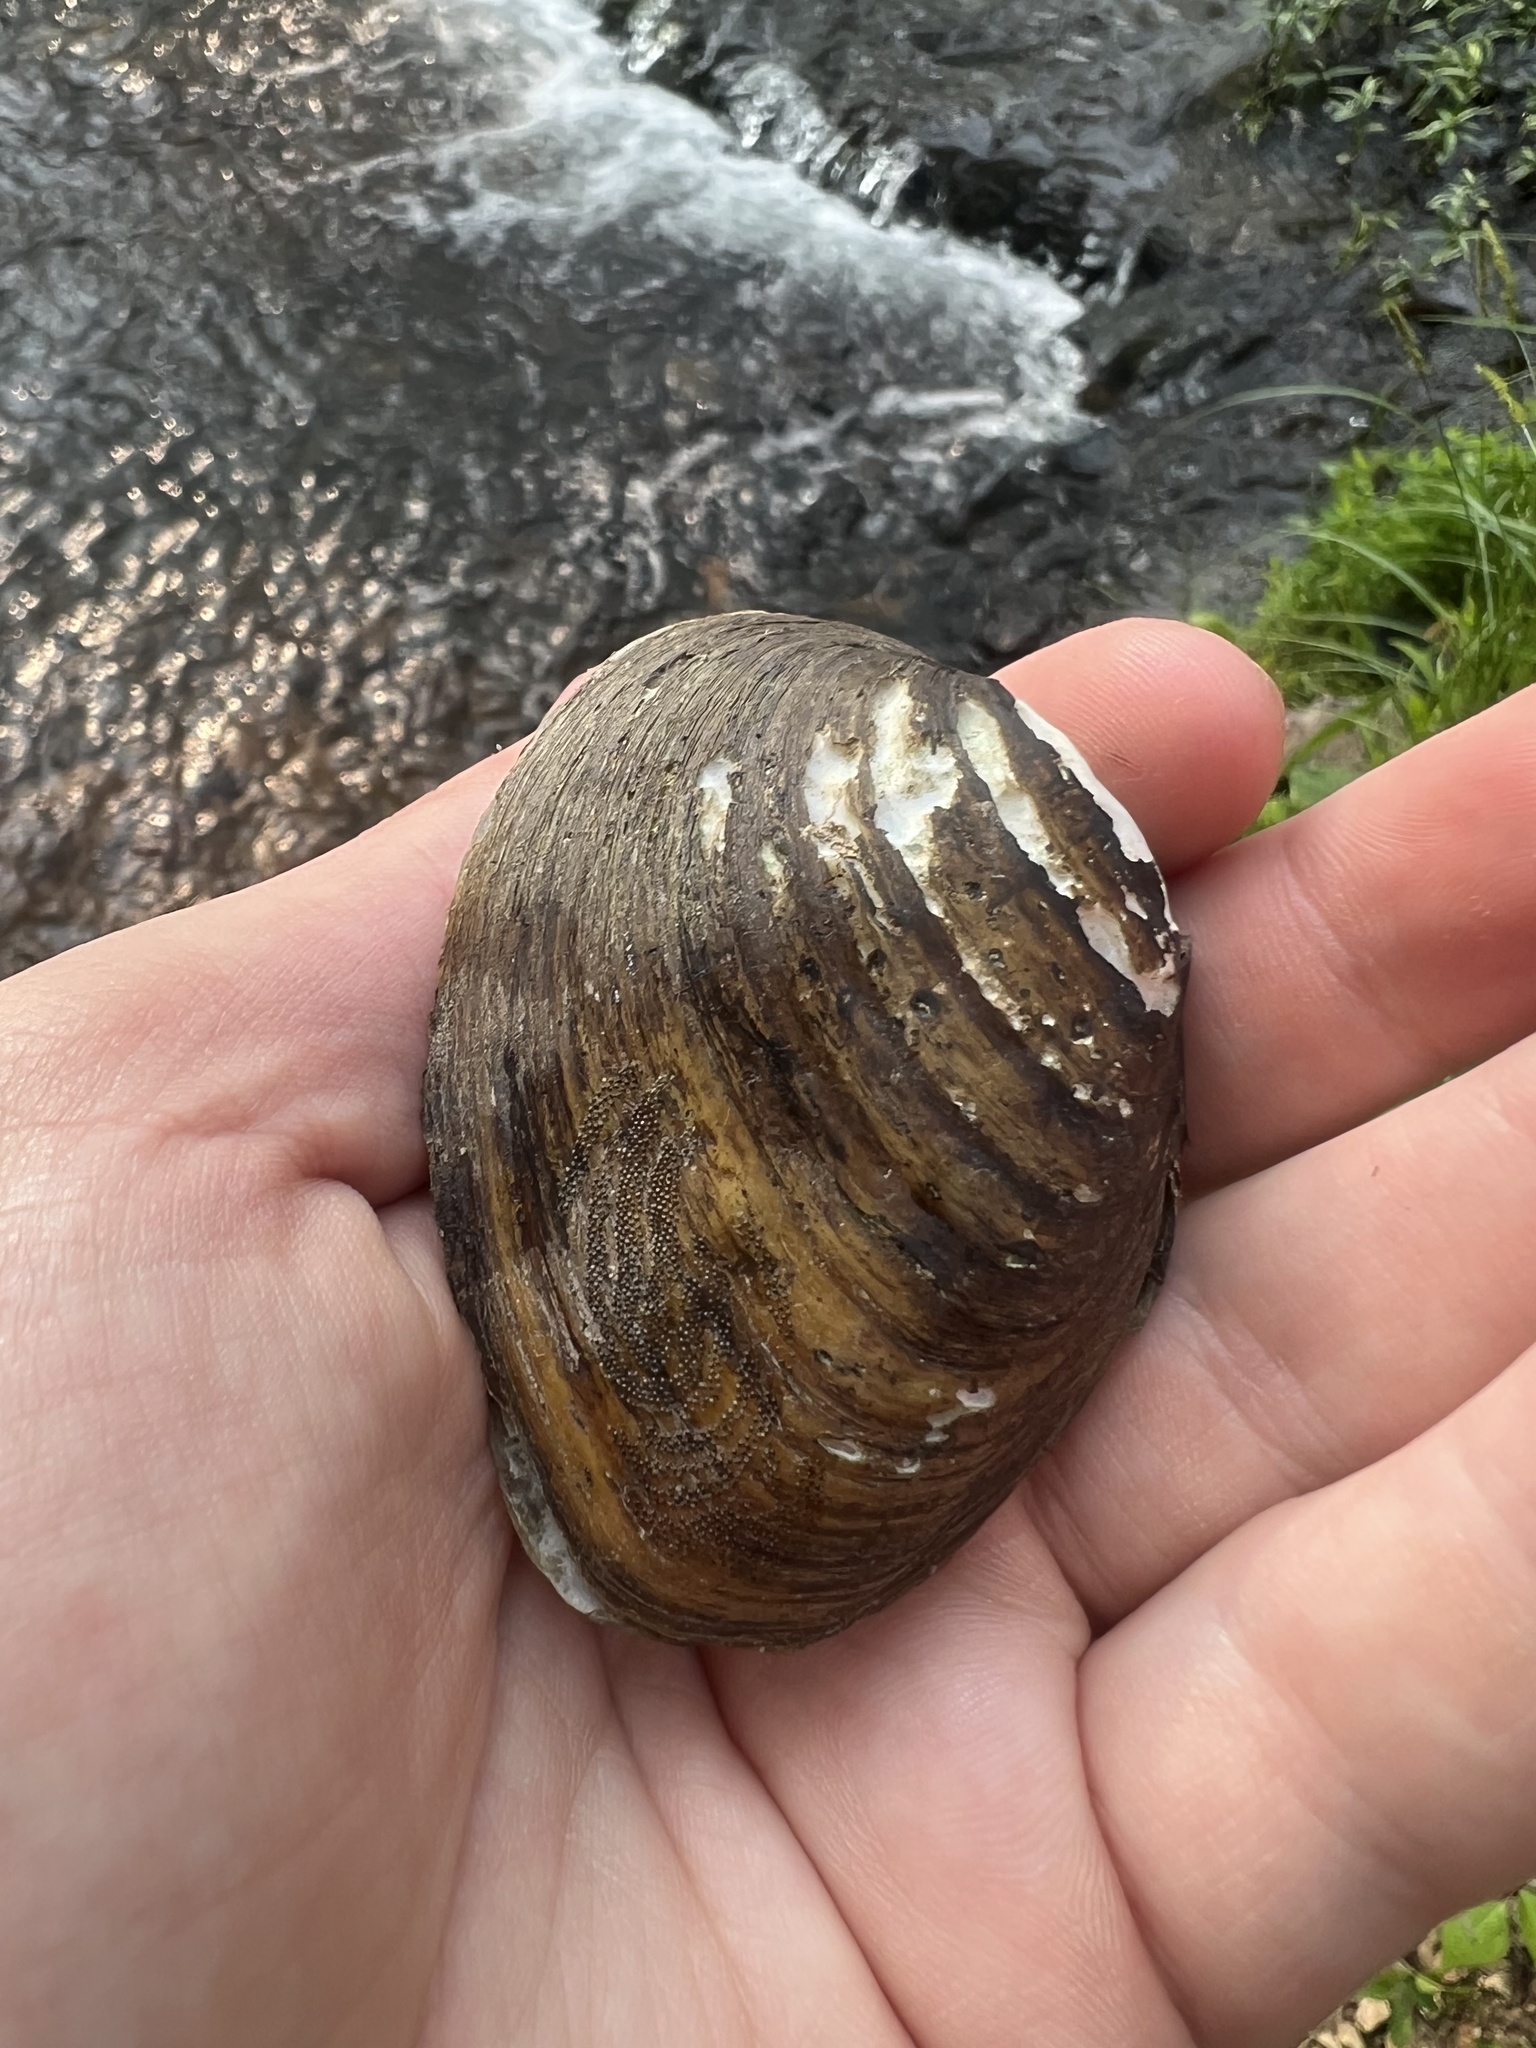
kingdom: Animalia
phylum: Mollusca
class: Bivalvia
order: Unionida
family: Unionidae
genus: Pleuronaia
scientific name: Pleuronaia barnesiana
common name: Tennessee pigtoe
